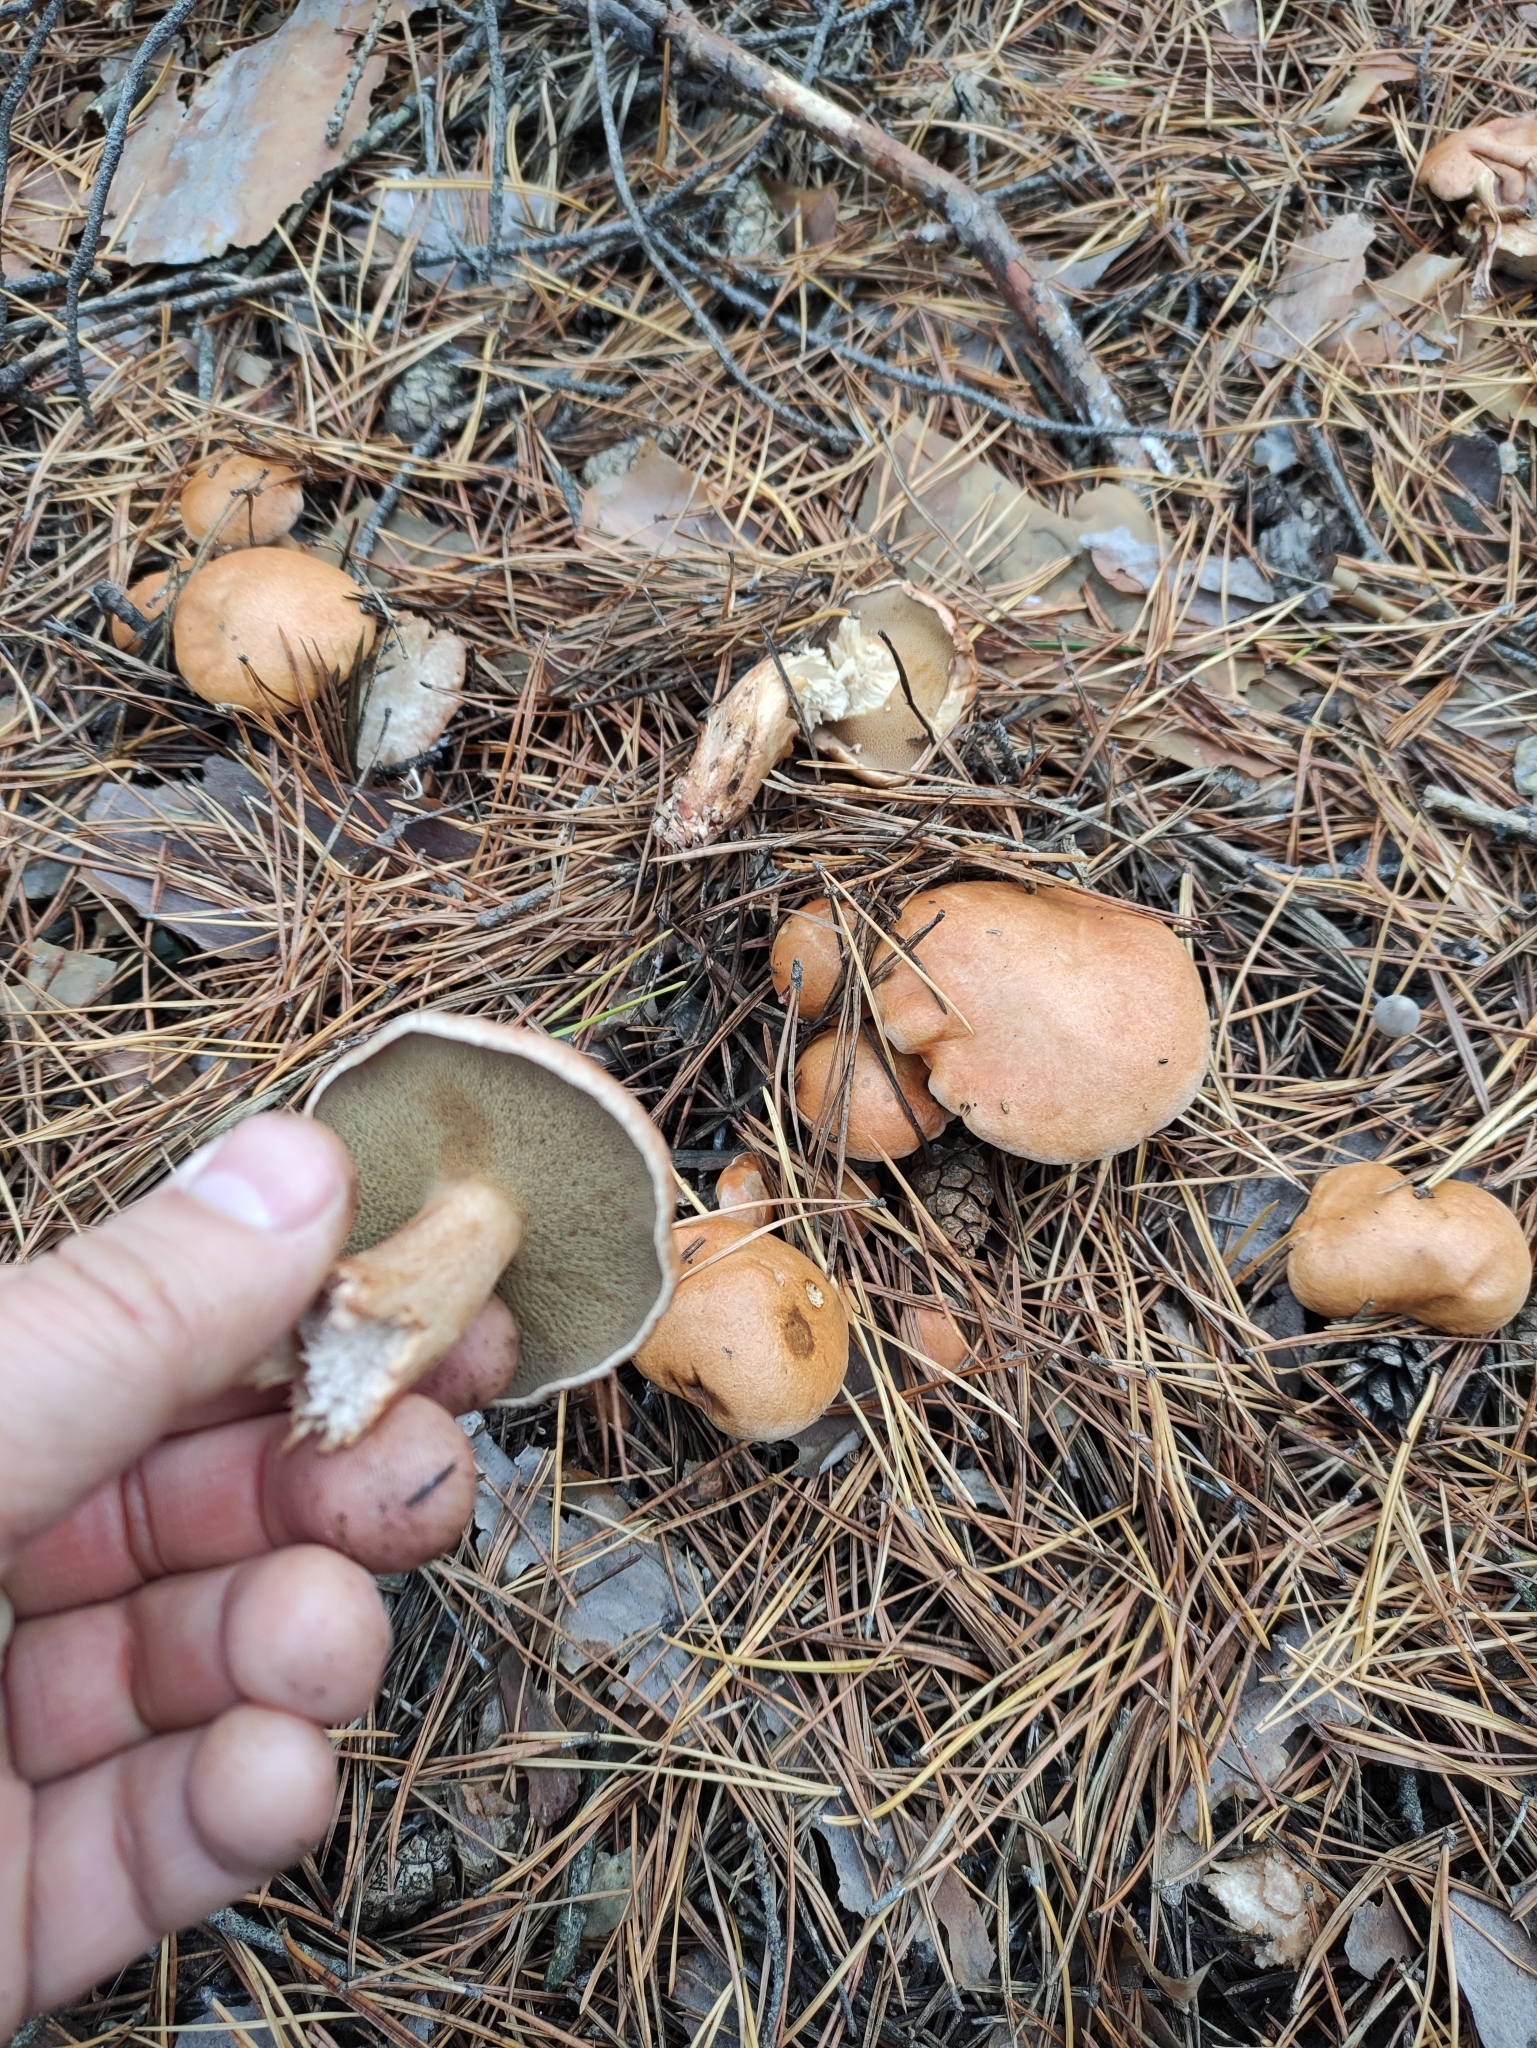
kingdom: Fungi
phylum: Basidiomycota
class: Agaricomycetes
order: Boletales
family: Suillaceae
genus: Suillus
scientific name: Suillus bovinus
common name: Bovine bolete
